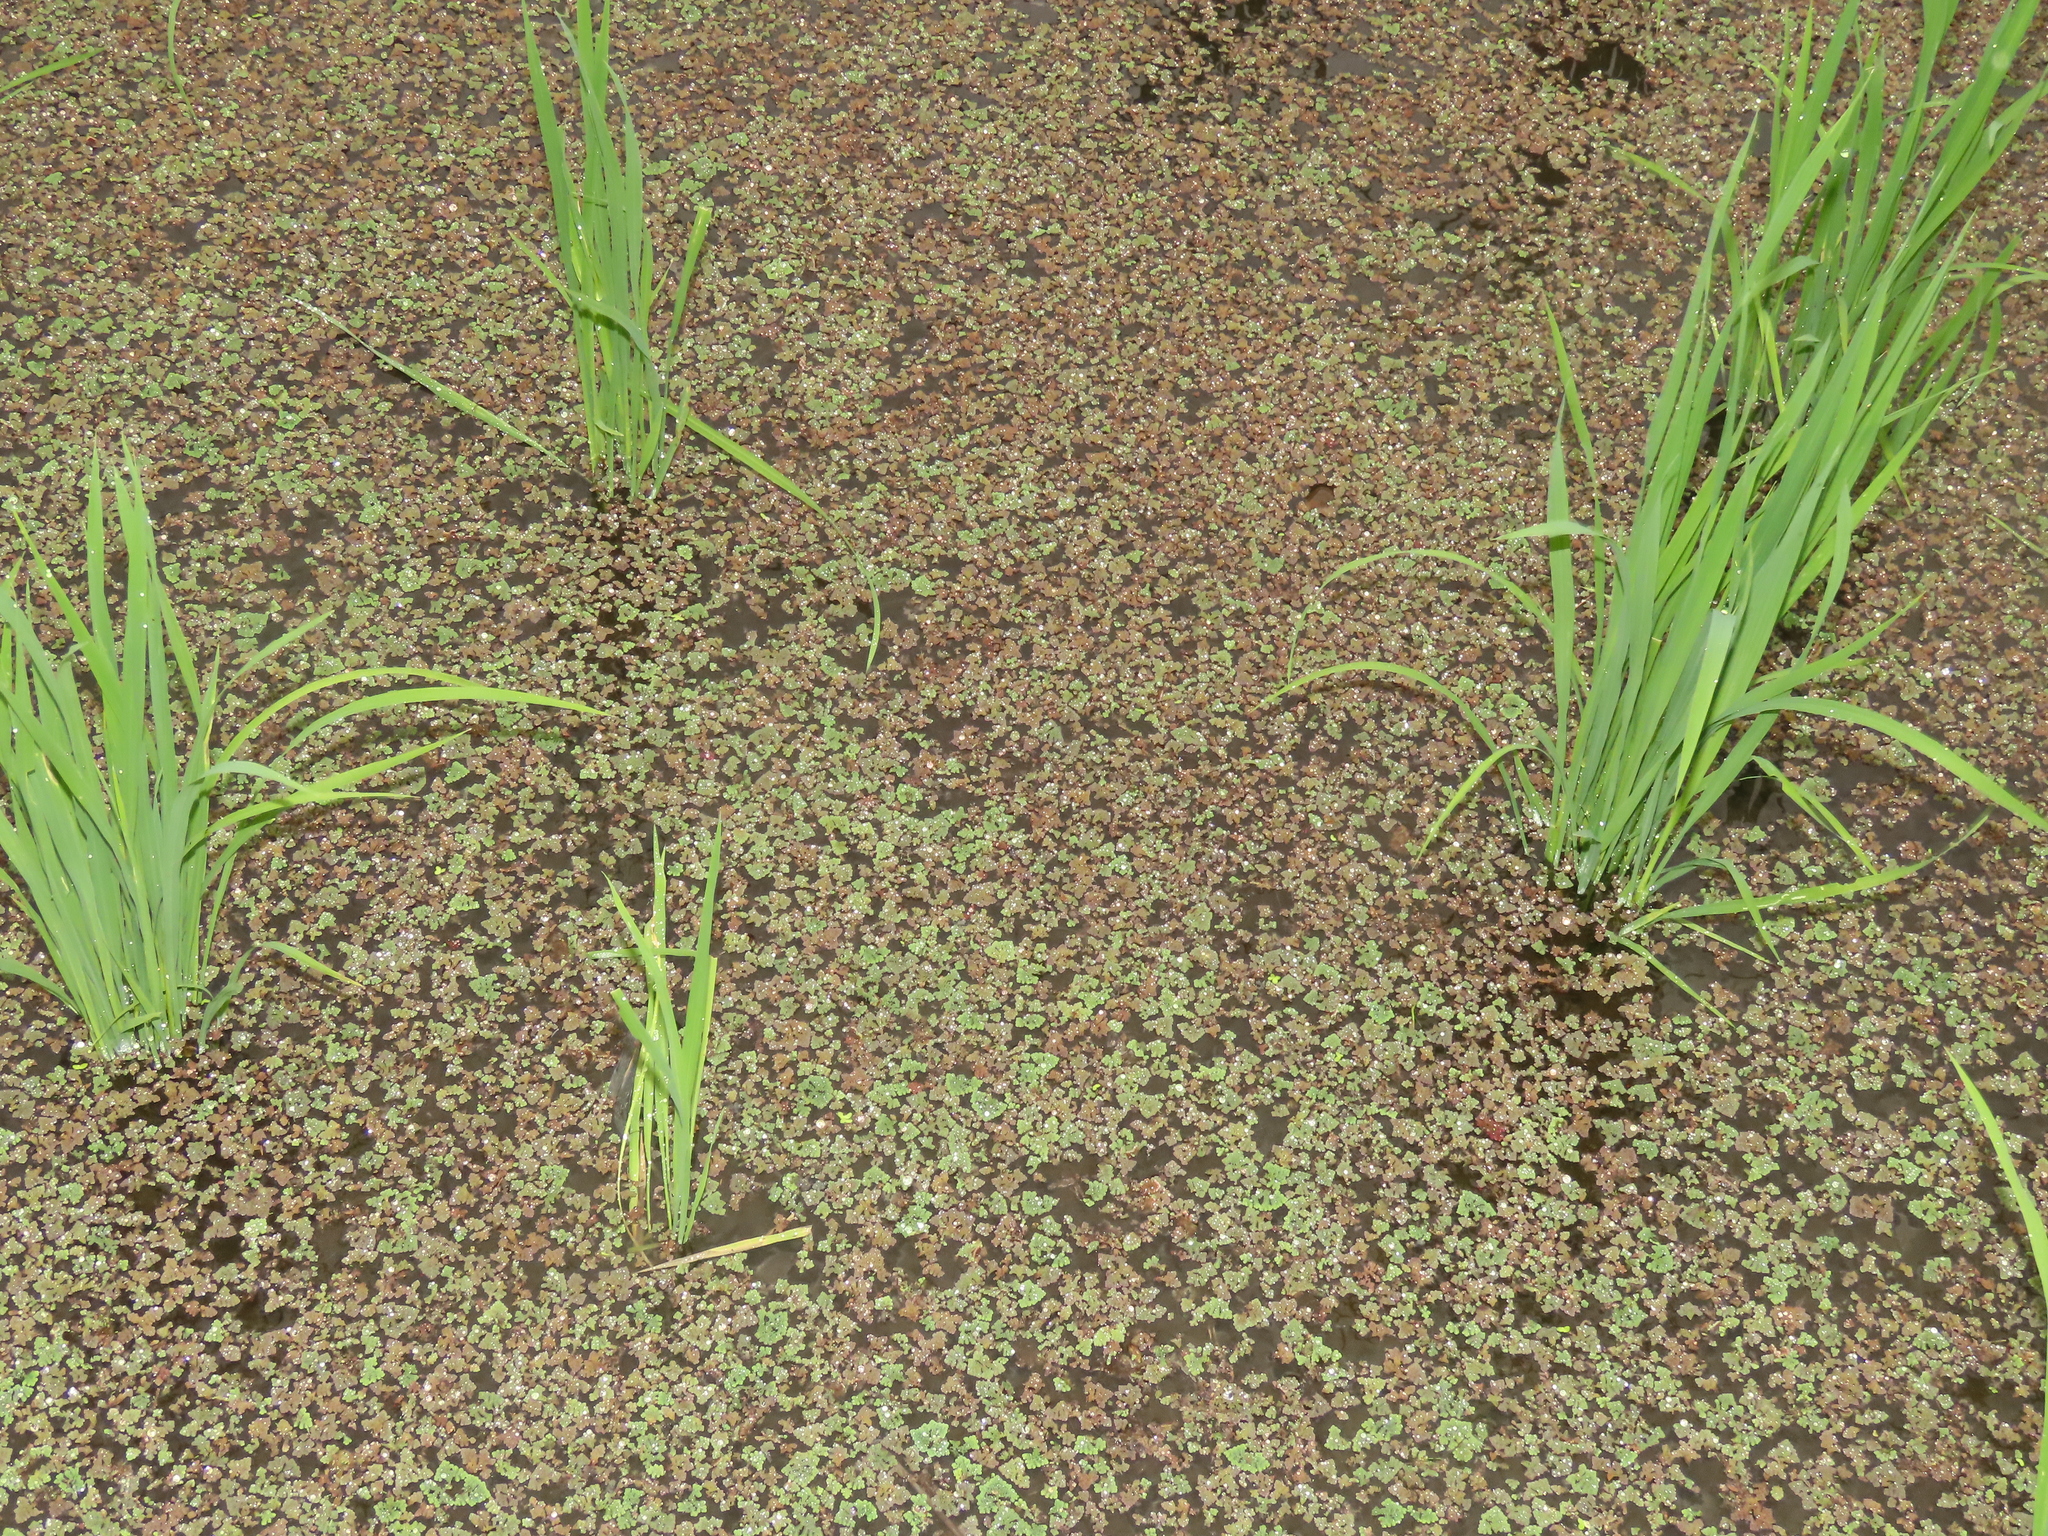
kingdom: Plantae
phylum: Tracheophyta
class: Polypodiopsida
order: Salviniales
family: Salviniaceae
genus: Azolla
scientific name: Azolla pinnata
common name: Ferny azolla
